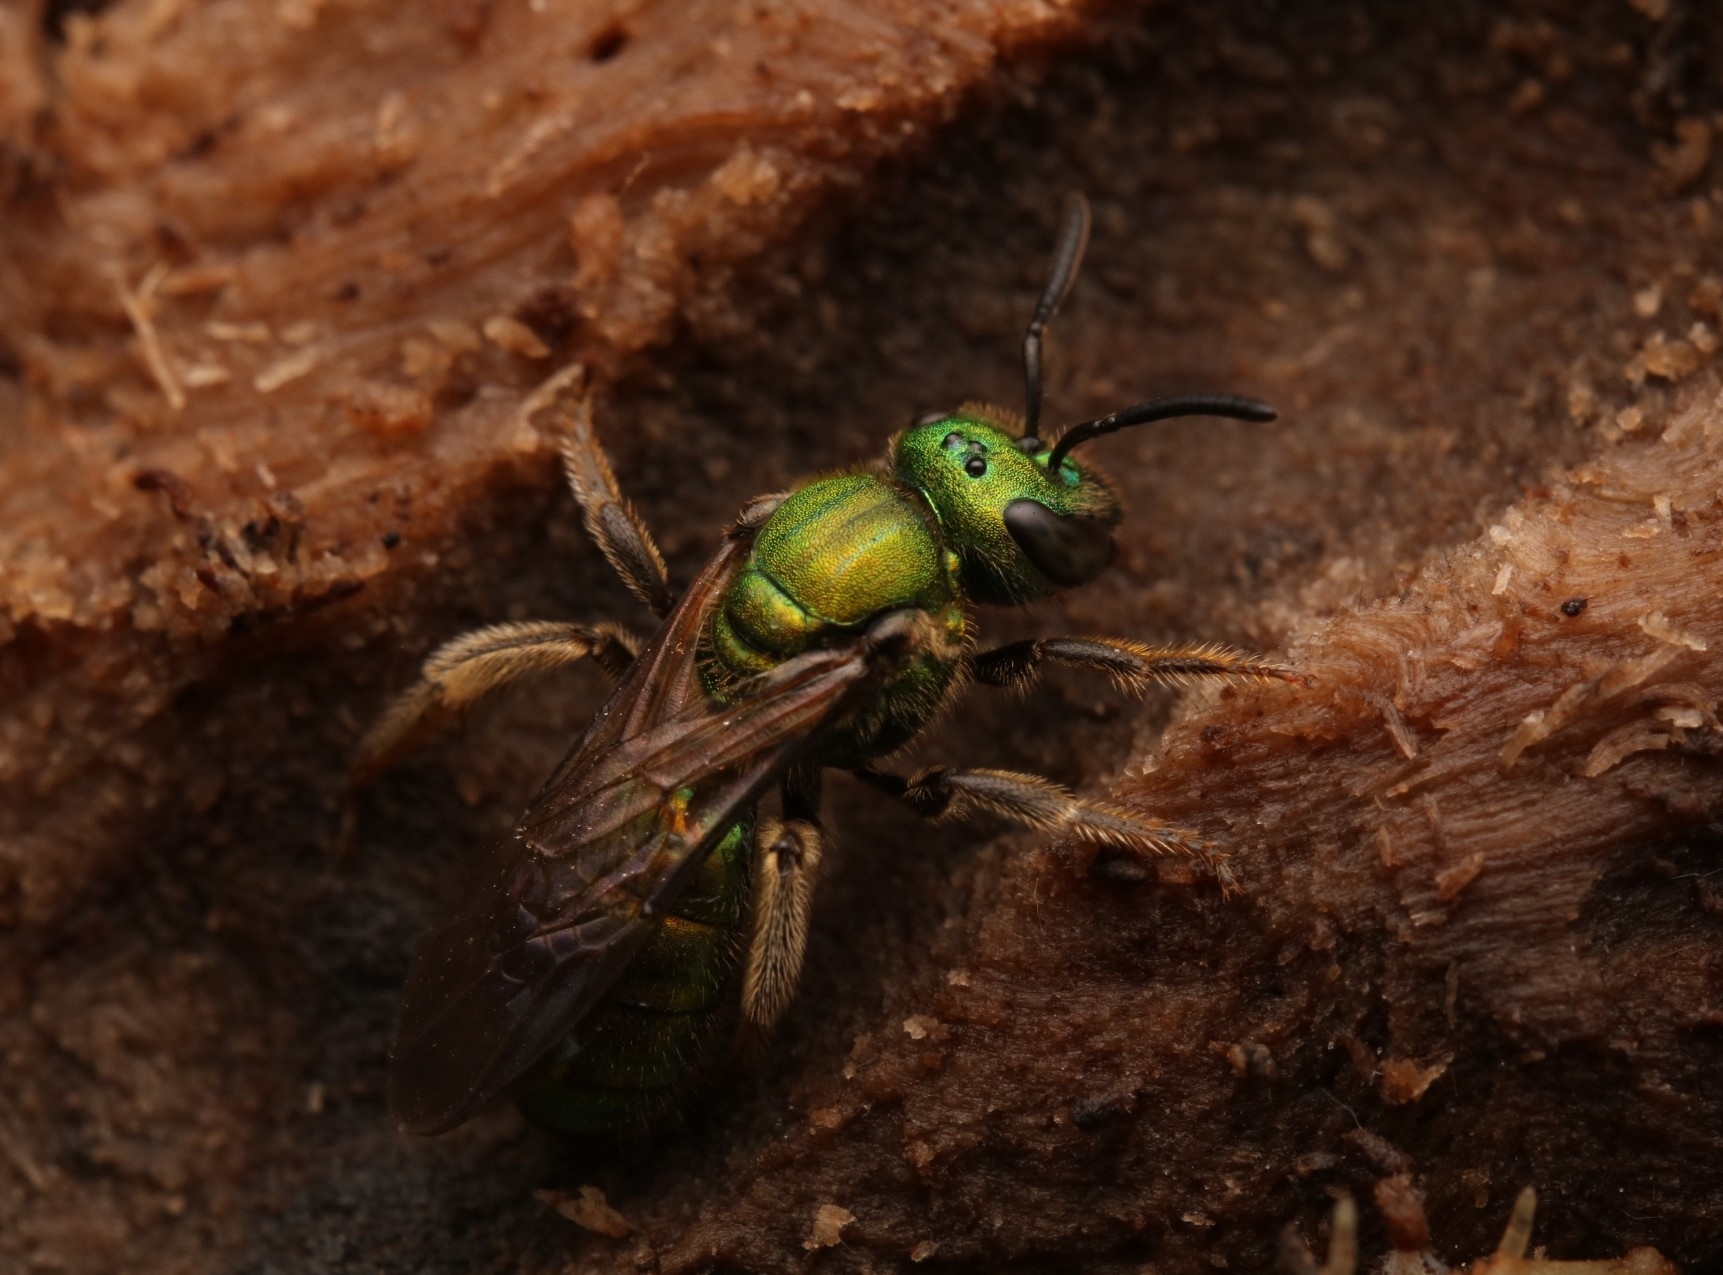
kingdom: Animalia
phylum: Arthropoda
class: Insecta
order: Hymenoptera
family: Halictidae
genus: Augochlora
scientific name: Augochlora pura
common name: Pure green sweat bee
